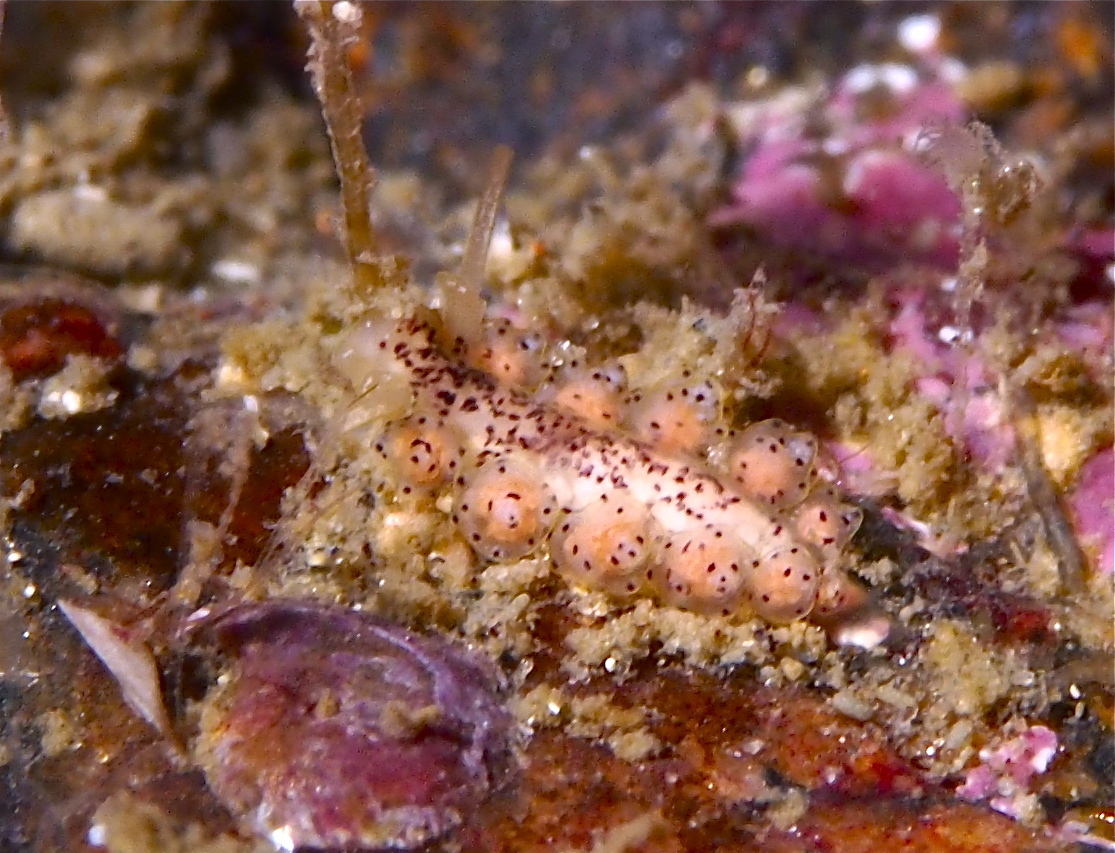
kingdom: Animalia
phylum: Mollusca
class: Gastropoda
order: Nudibranchia
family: Dotidae
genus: Doto
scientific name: Doto dunnei
